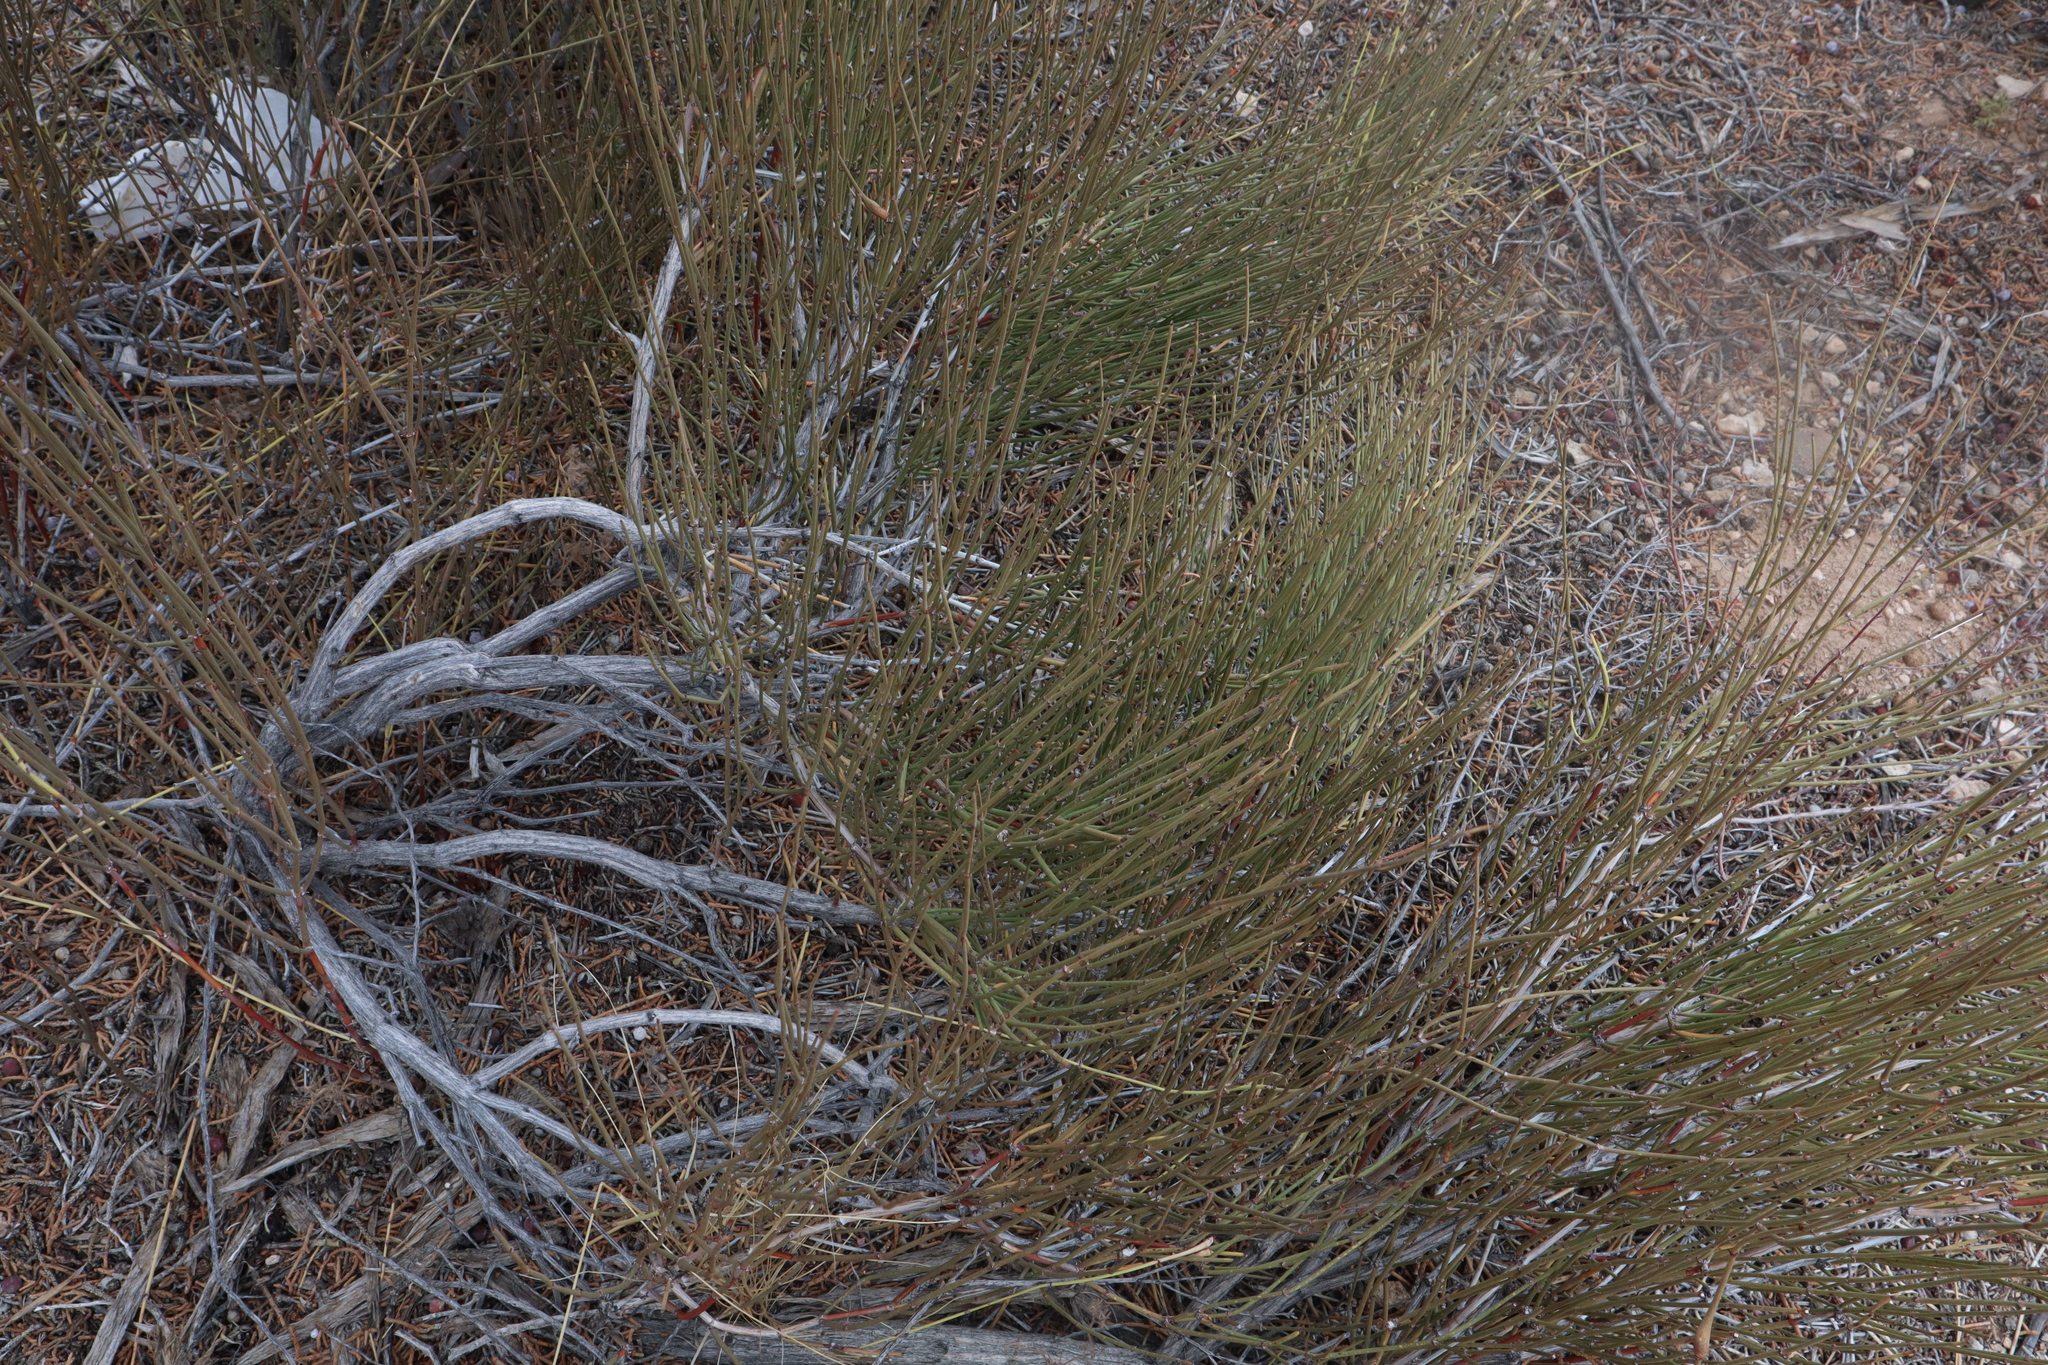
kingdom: Plantae
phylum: Tracheophyta
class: Gnetopsida
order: Ephedrales
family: Ephedraceae
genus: Ephedra
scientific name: Ephedra viridis
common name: Green ephedra
